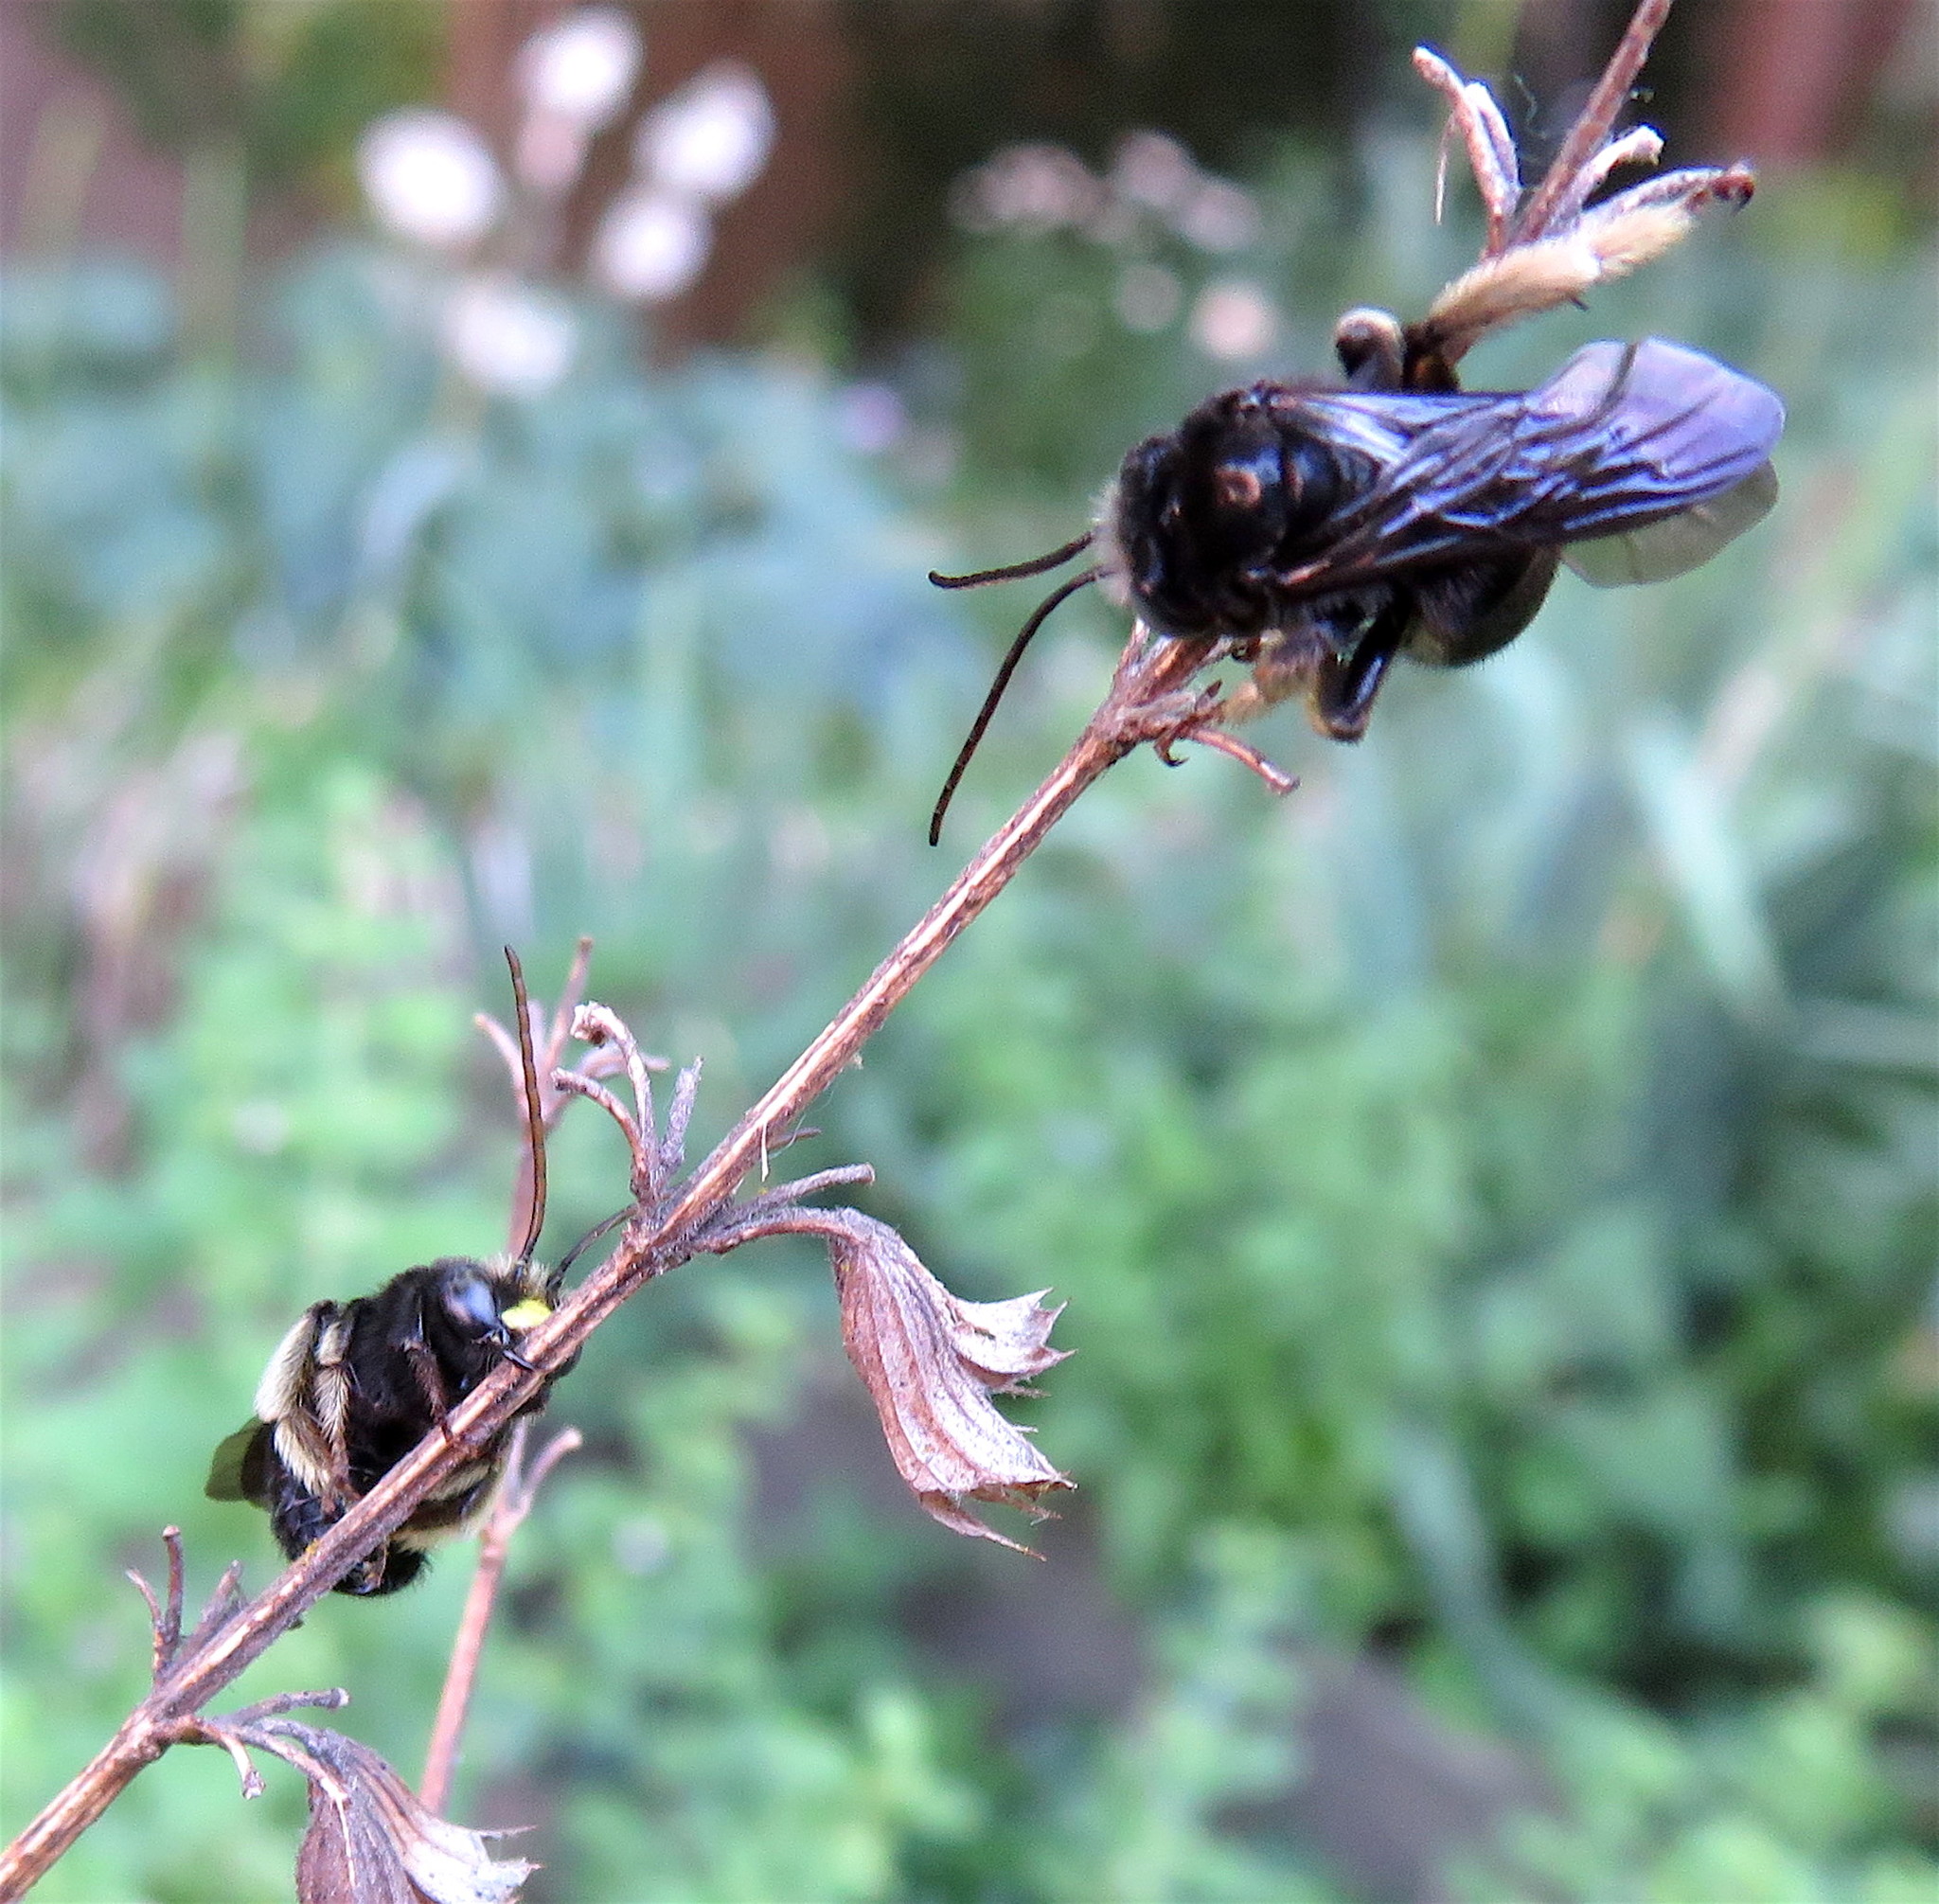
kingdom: Animalia
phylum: Arthropoda
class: Insecta
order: Hymenoptera
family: Apidae
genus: Melissodes
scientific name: Melissodes bimaculatus
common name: Two-spotted long-horned bee
